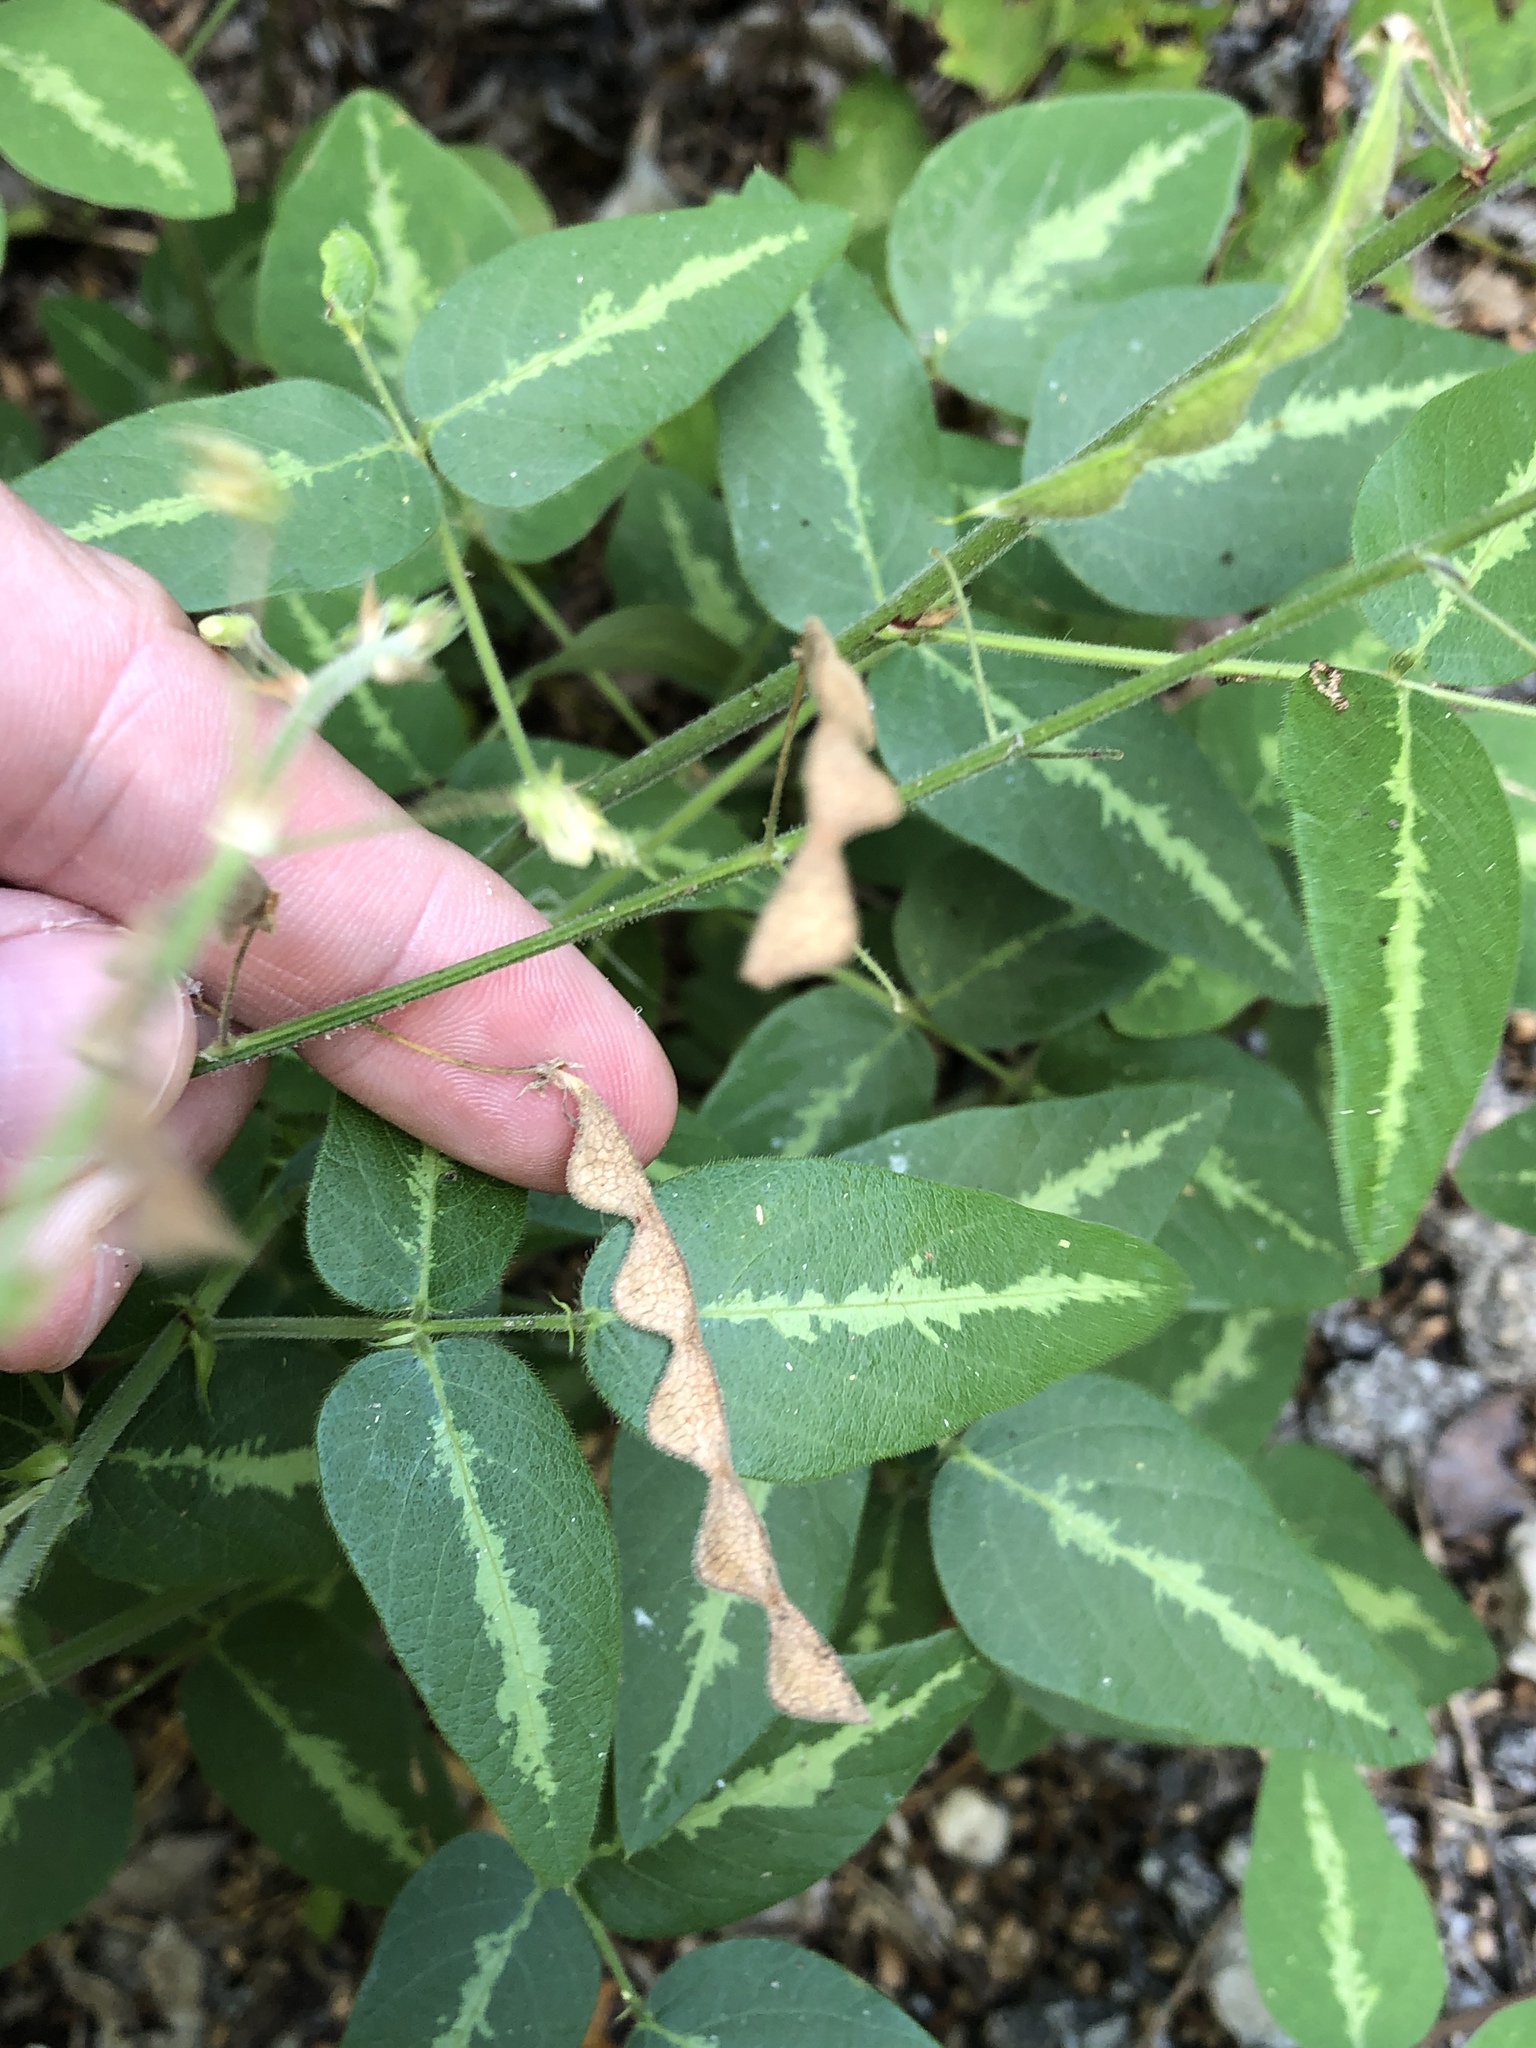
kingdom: Plantae
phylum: Tracheophyta
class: Magnoliopsida
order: Fabales
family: Fabaceae
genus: Desmodium
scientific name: Desmodium tweedyi
